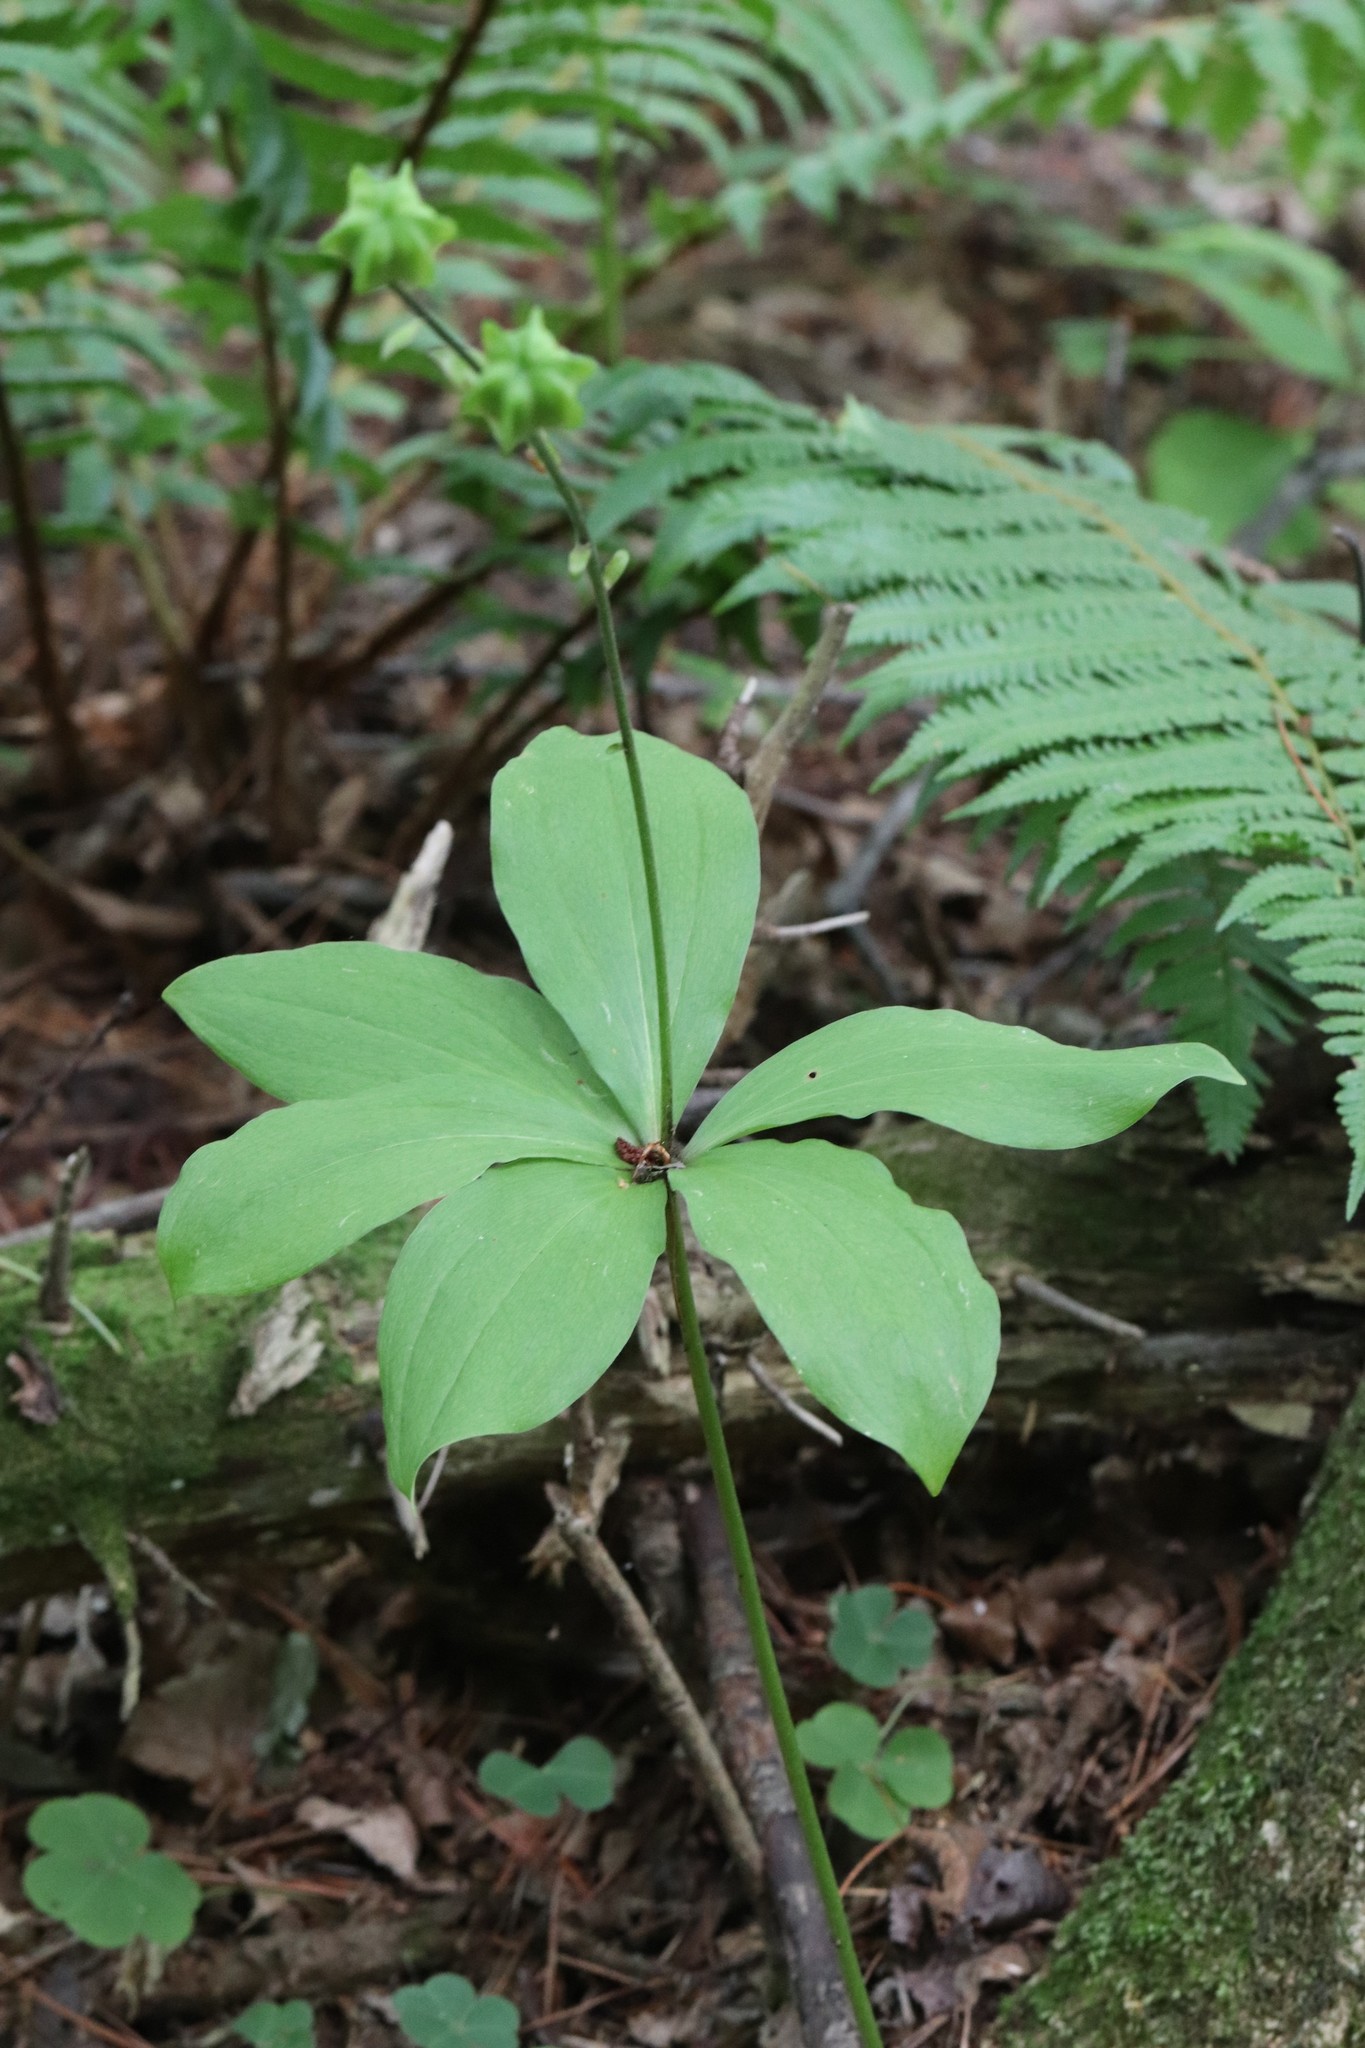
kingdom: Plantae
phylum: Tracheophyta
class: Liliopsida
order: Liliales
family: Liliaceae
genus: Lilium
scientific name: Lilium distichum
